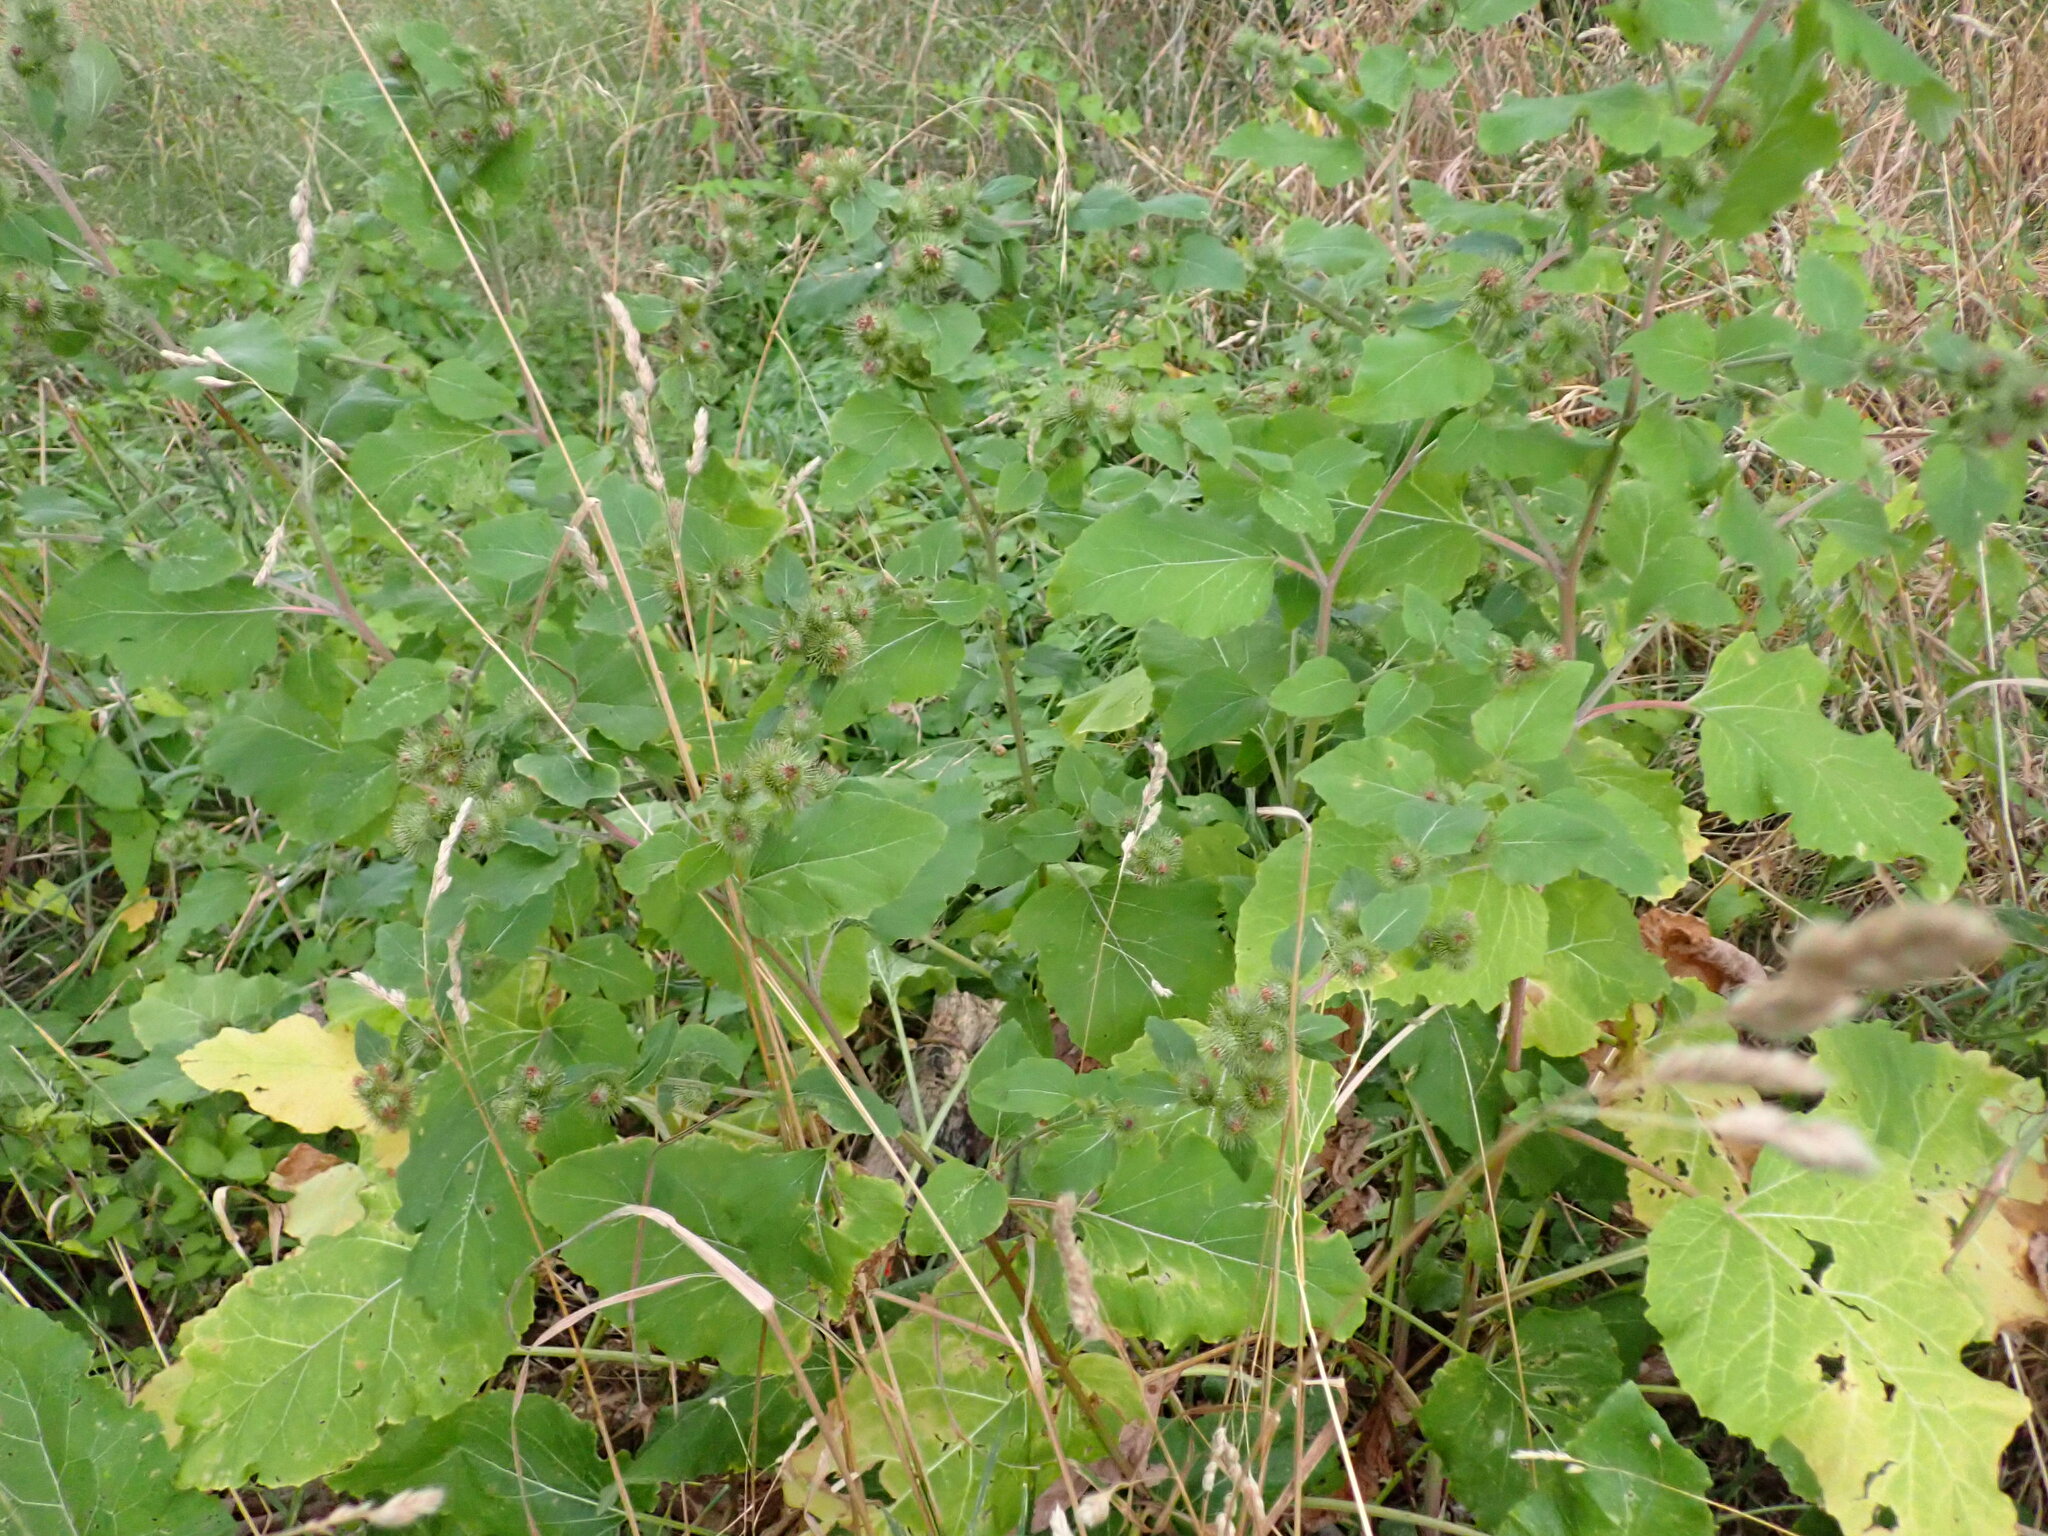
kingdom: Plantae
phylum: Tracheophyta
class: Magnoliopsida
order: Asterales
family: Asteraceae
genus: Arctium
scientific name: Arctium minus
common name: Lesser burdock
